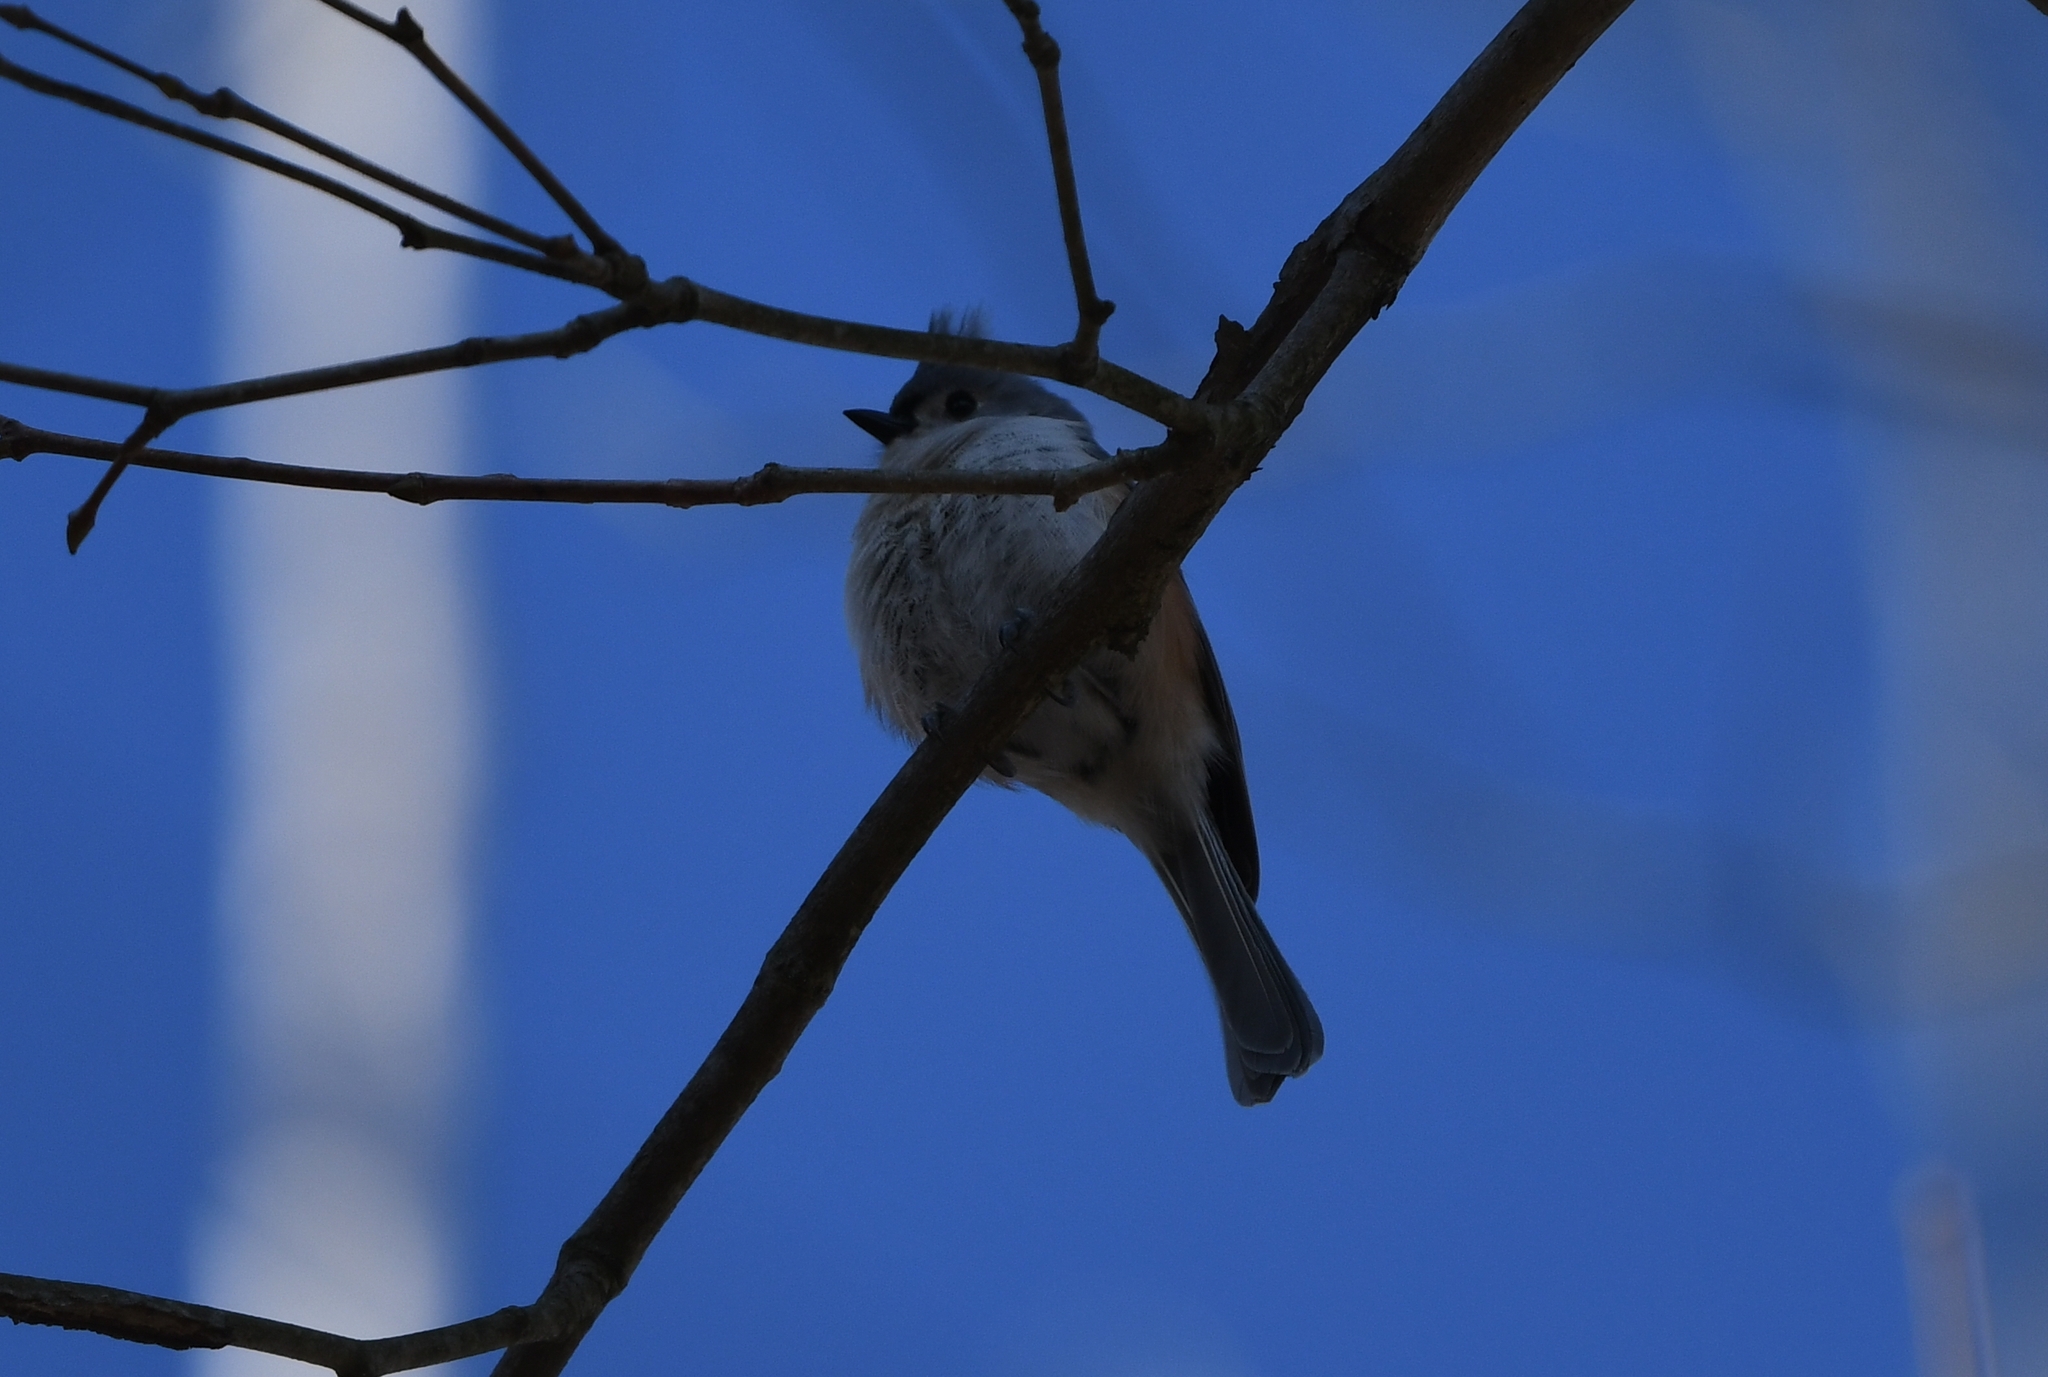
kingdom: Animalia
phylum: Chordata
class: Aves
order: Passeriformes
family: Paridae
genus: Baeolophus
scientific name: Baeolophus bicolor
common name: Tufted titmouse
